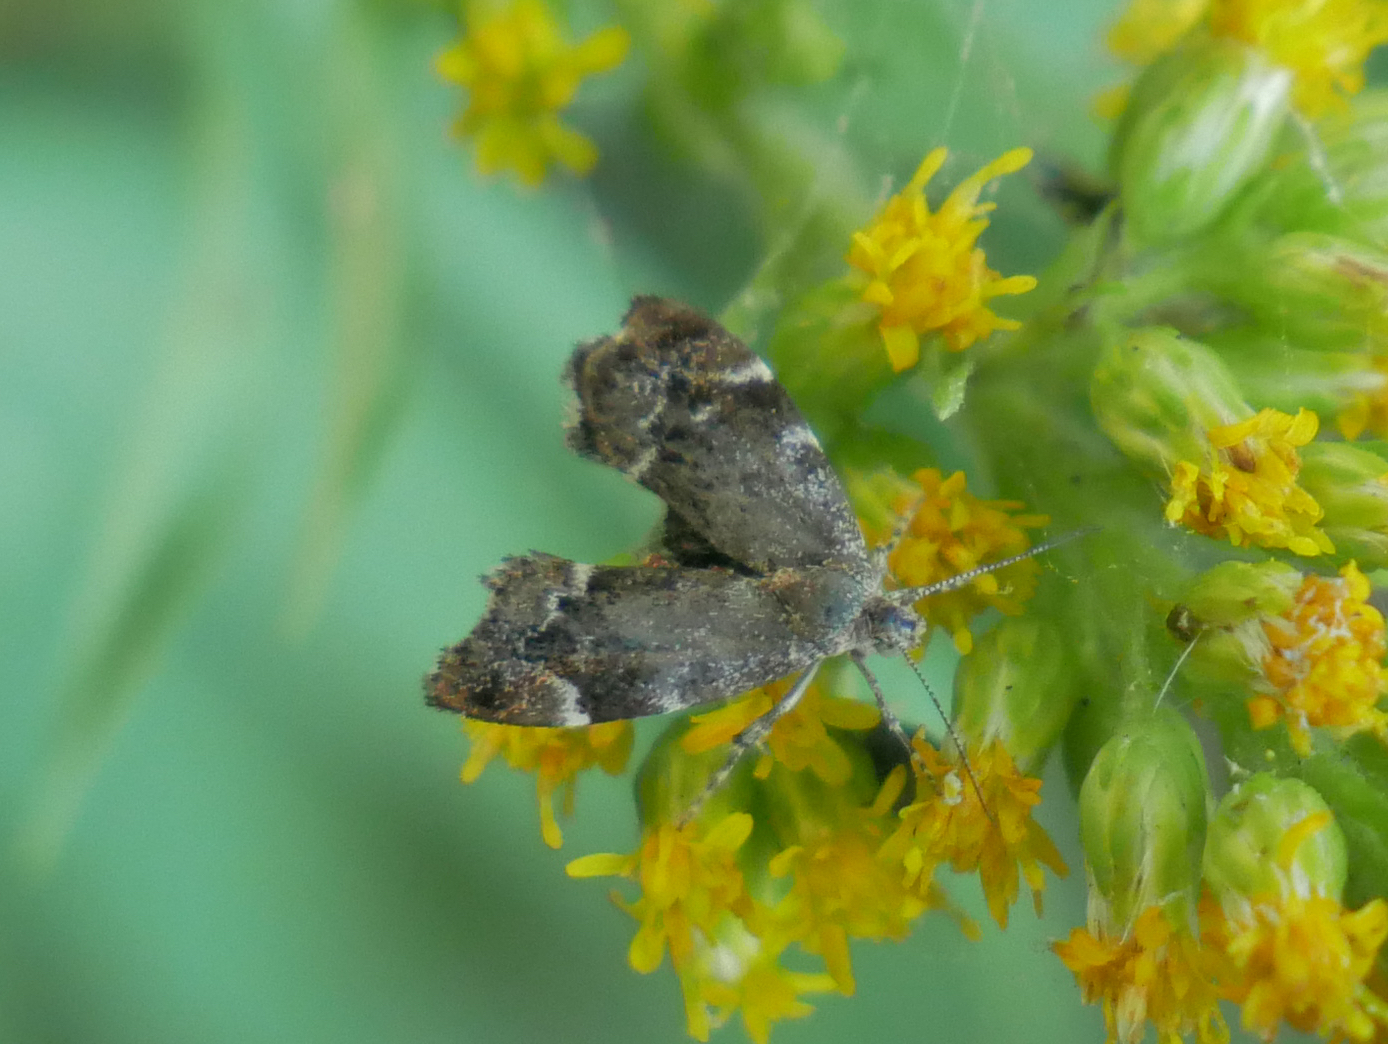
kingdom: Animalia
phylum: Arthropoda
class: Insecta
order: Lepidoptera
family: Choreutidae
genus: Anthophila
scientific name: Anthophila fabriciana
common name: Nettle-tap
